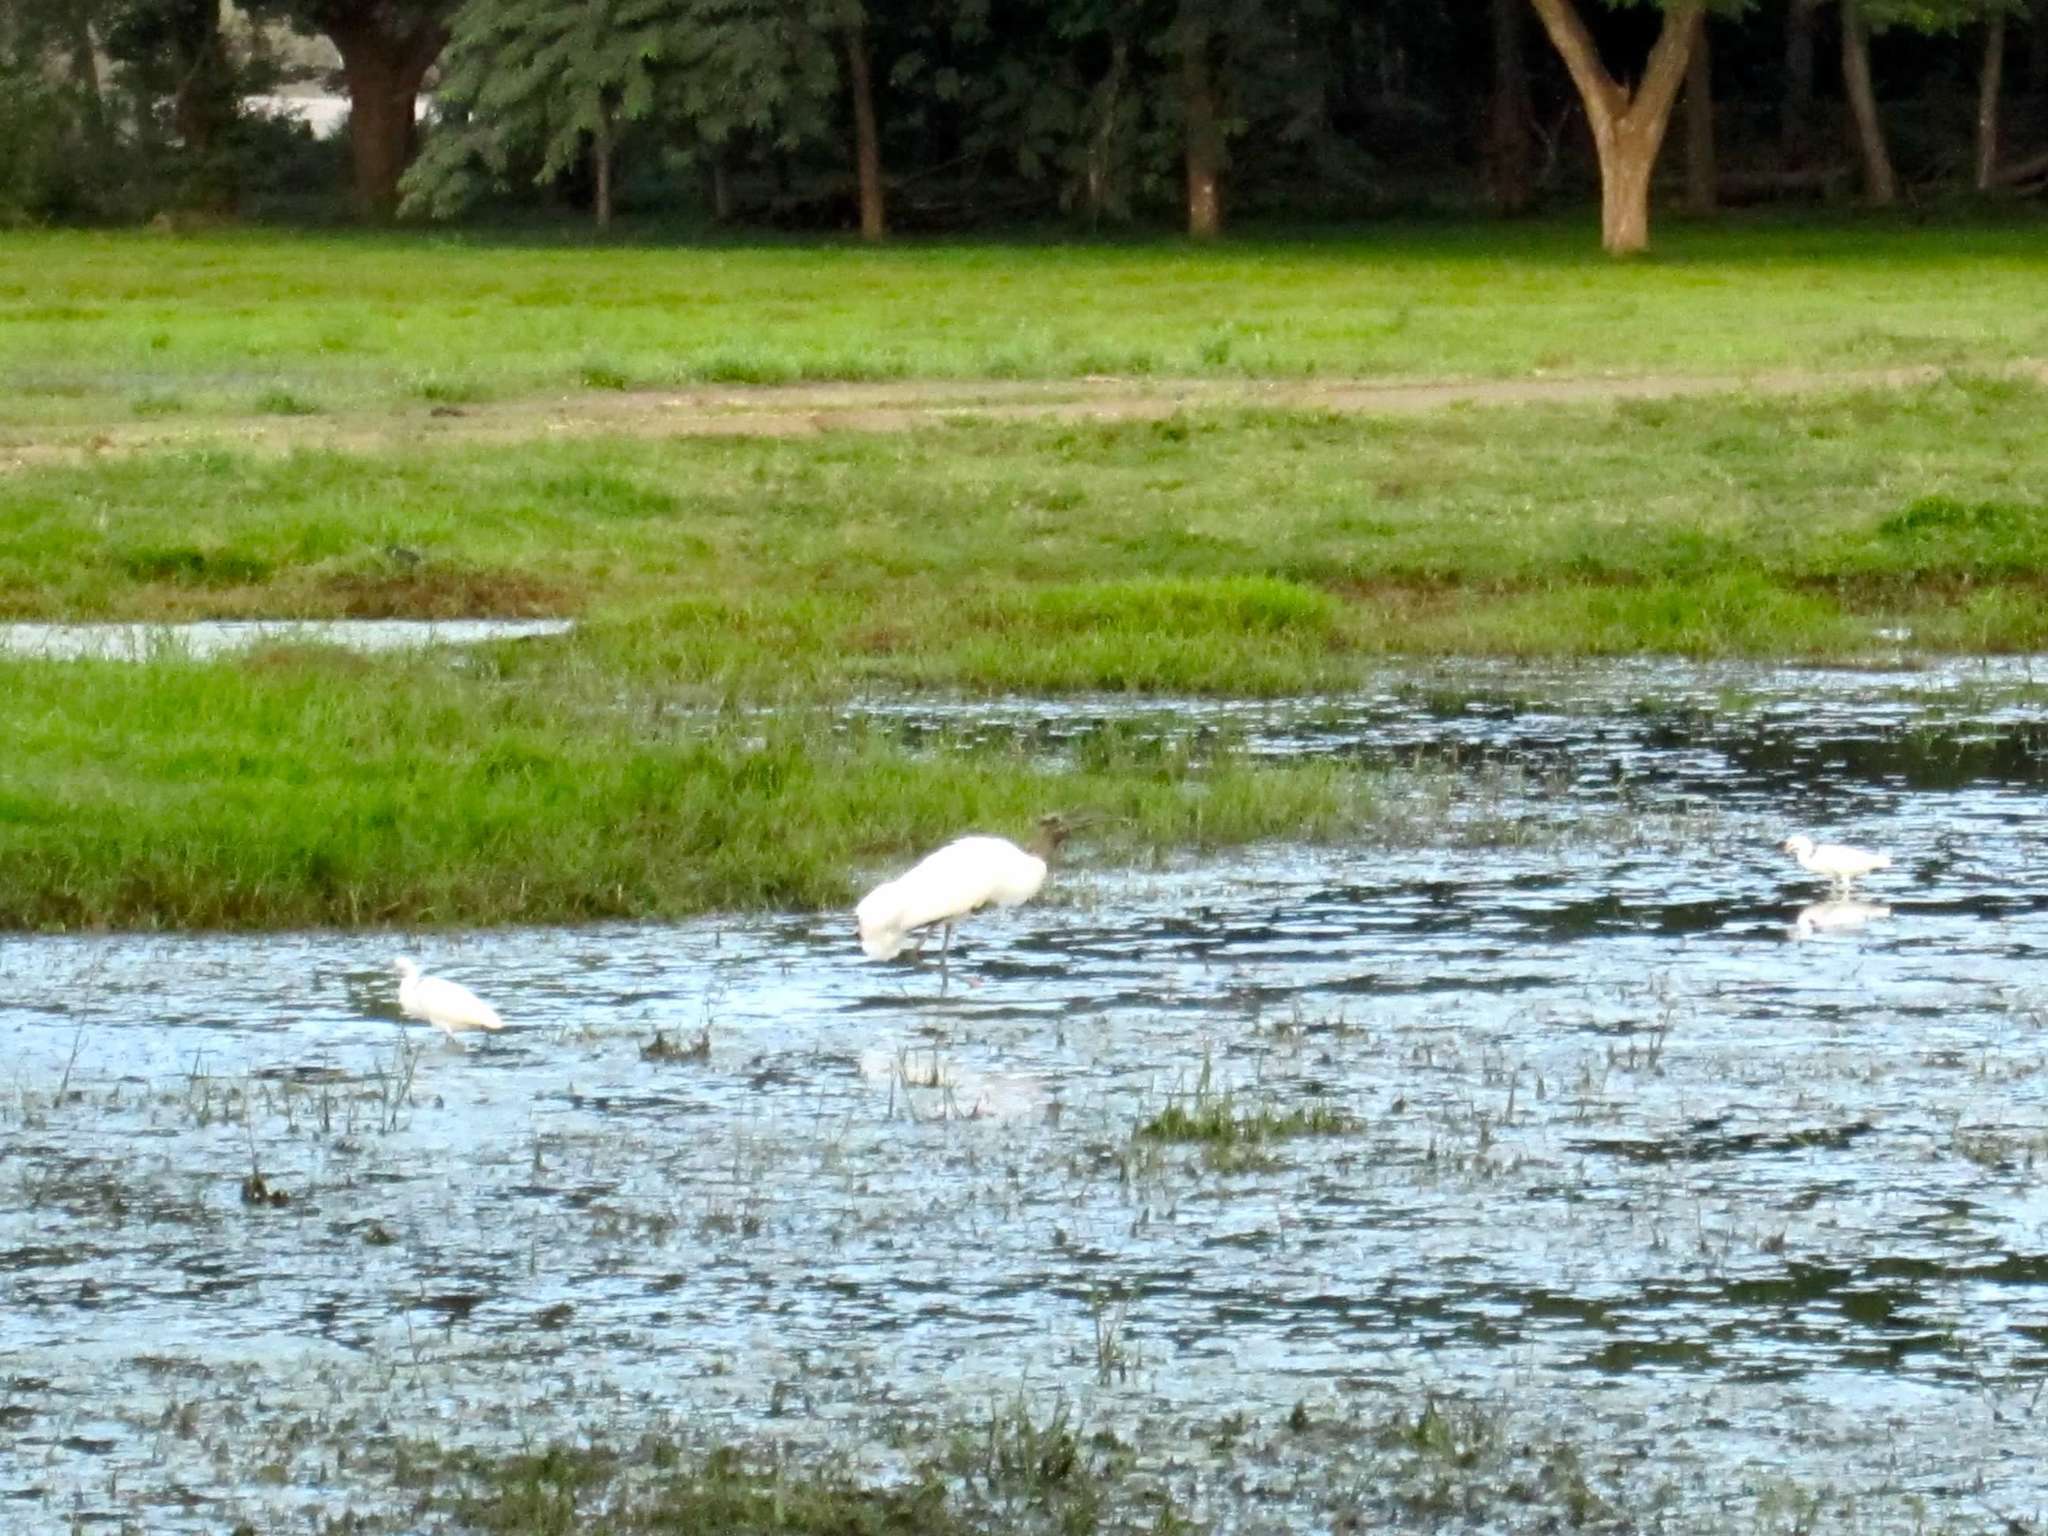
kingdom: Animalia
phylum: Chordata
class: Aves
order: Ciconiiformes
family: Ciconiidae
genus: Mycteria
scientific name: Mycteria americana
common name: Wood stork
